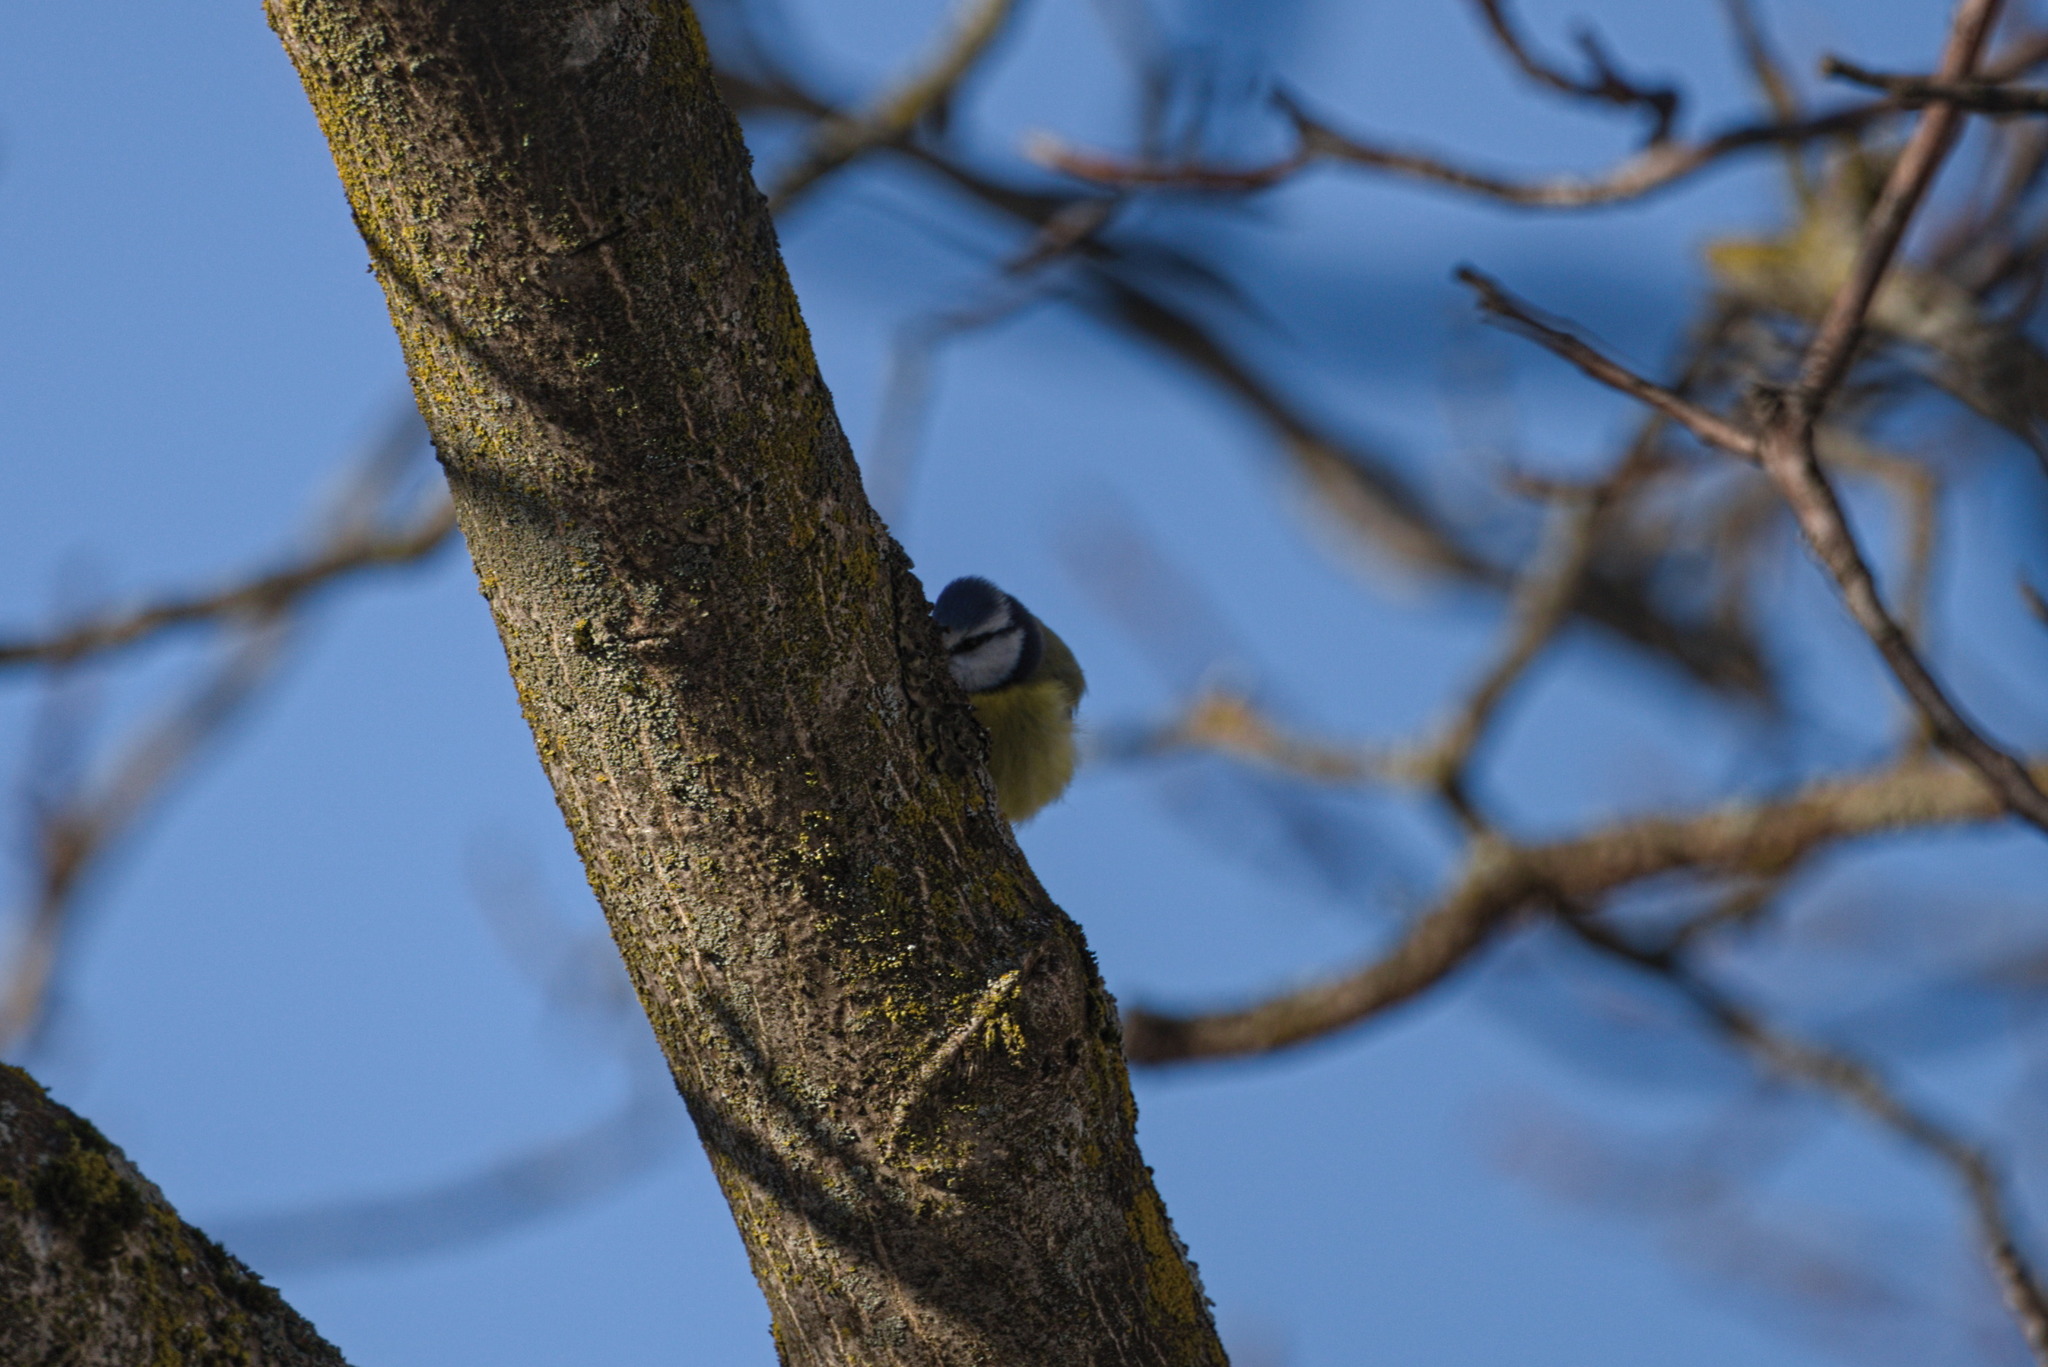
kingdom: Animalia
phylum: Chordata
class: Aves
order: Passeriformes
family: Paridae
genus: Cyanistes
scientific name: Cyanistes caeruleus
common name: Eurasian blue tit
